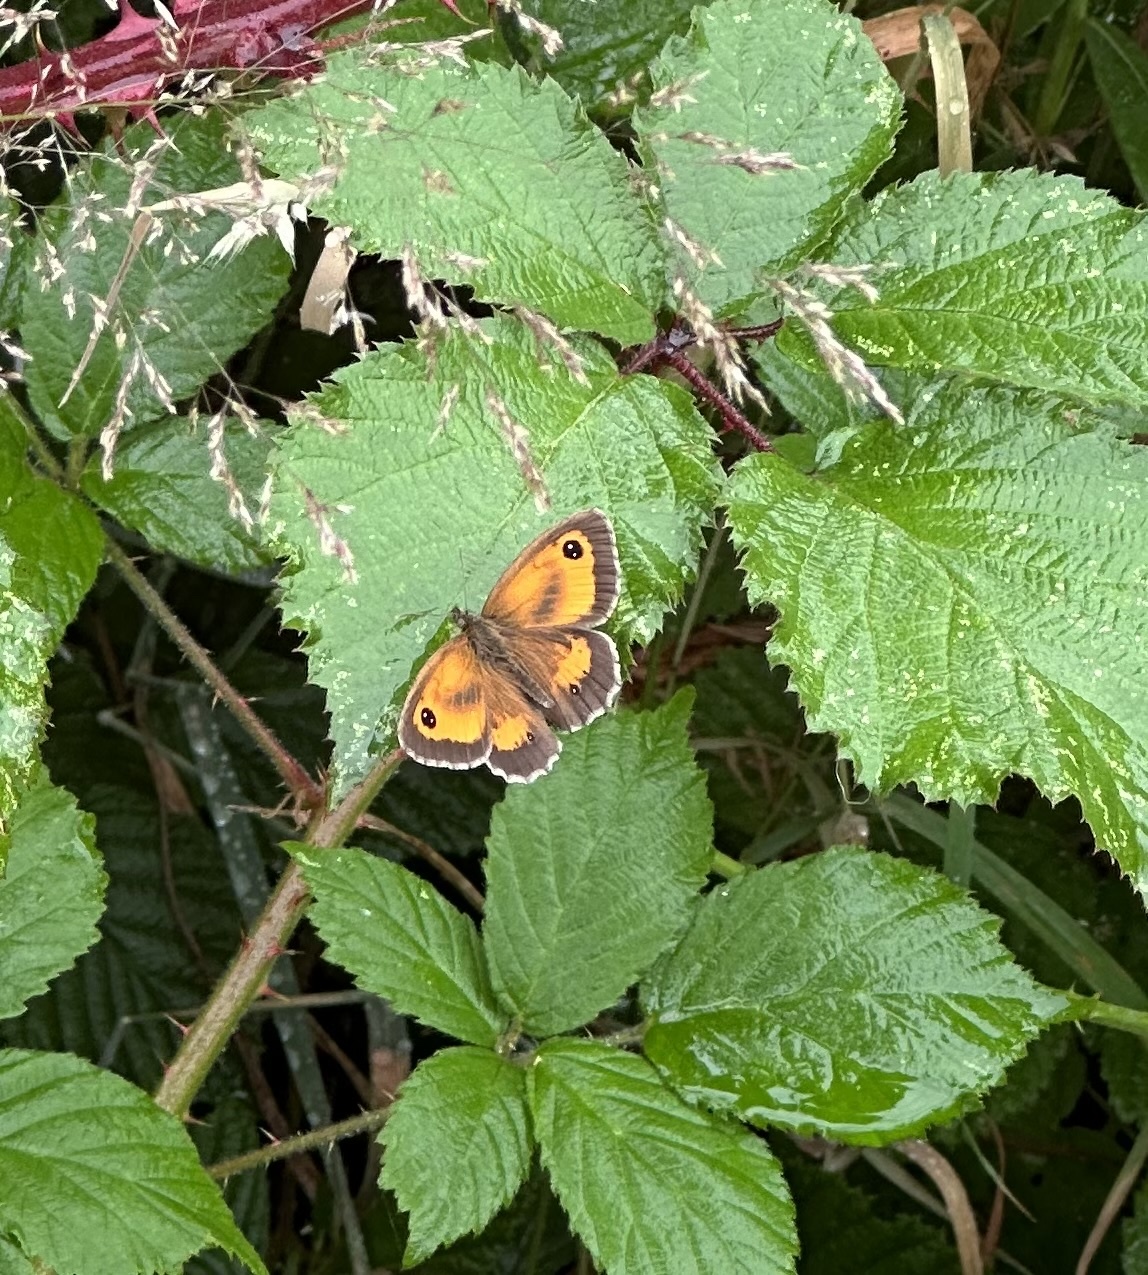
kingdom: Animalia
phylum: Arthropoda
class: Insecta
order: Lepidoptera
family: Nymphalidae
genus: Pyronia
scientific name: Pyronia tithonus
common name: Gatekeeper
